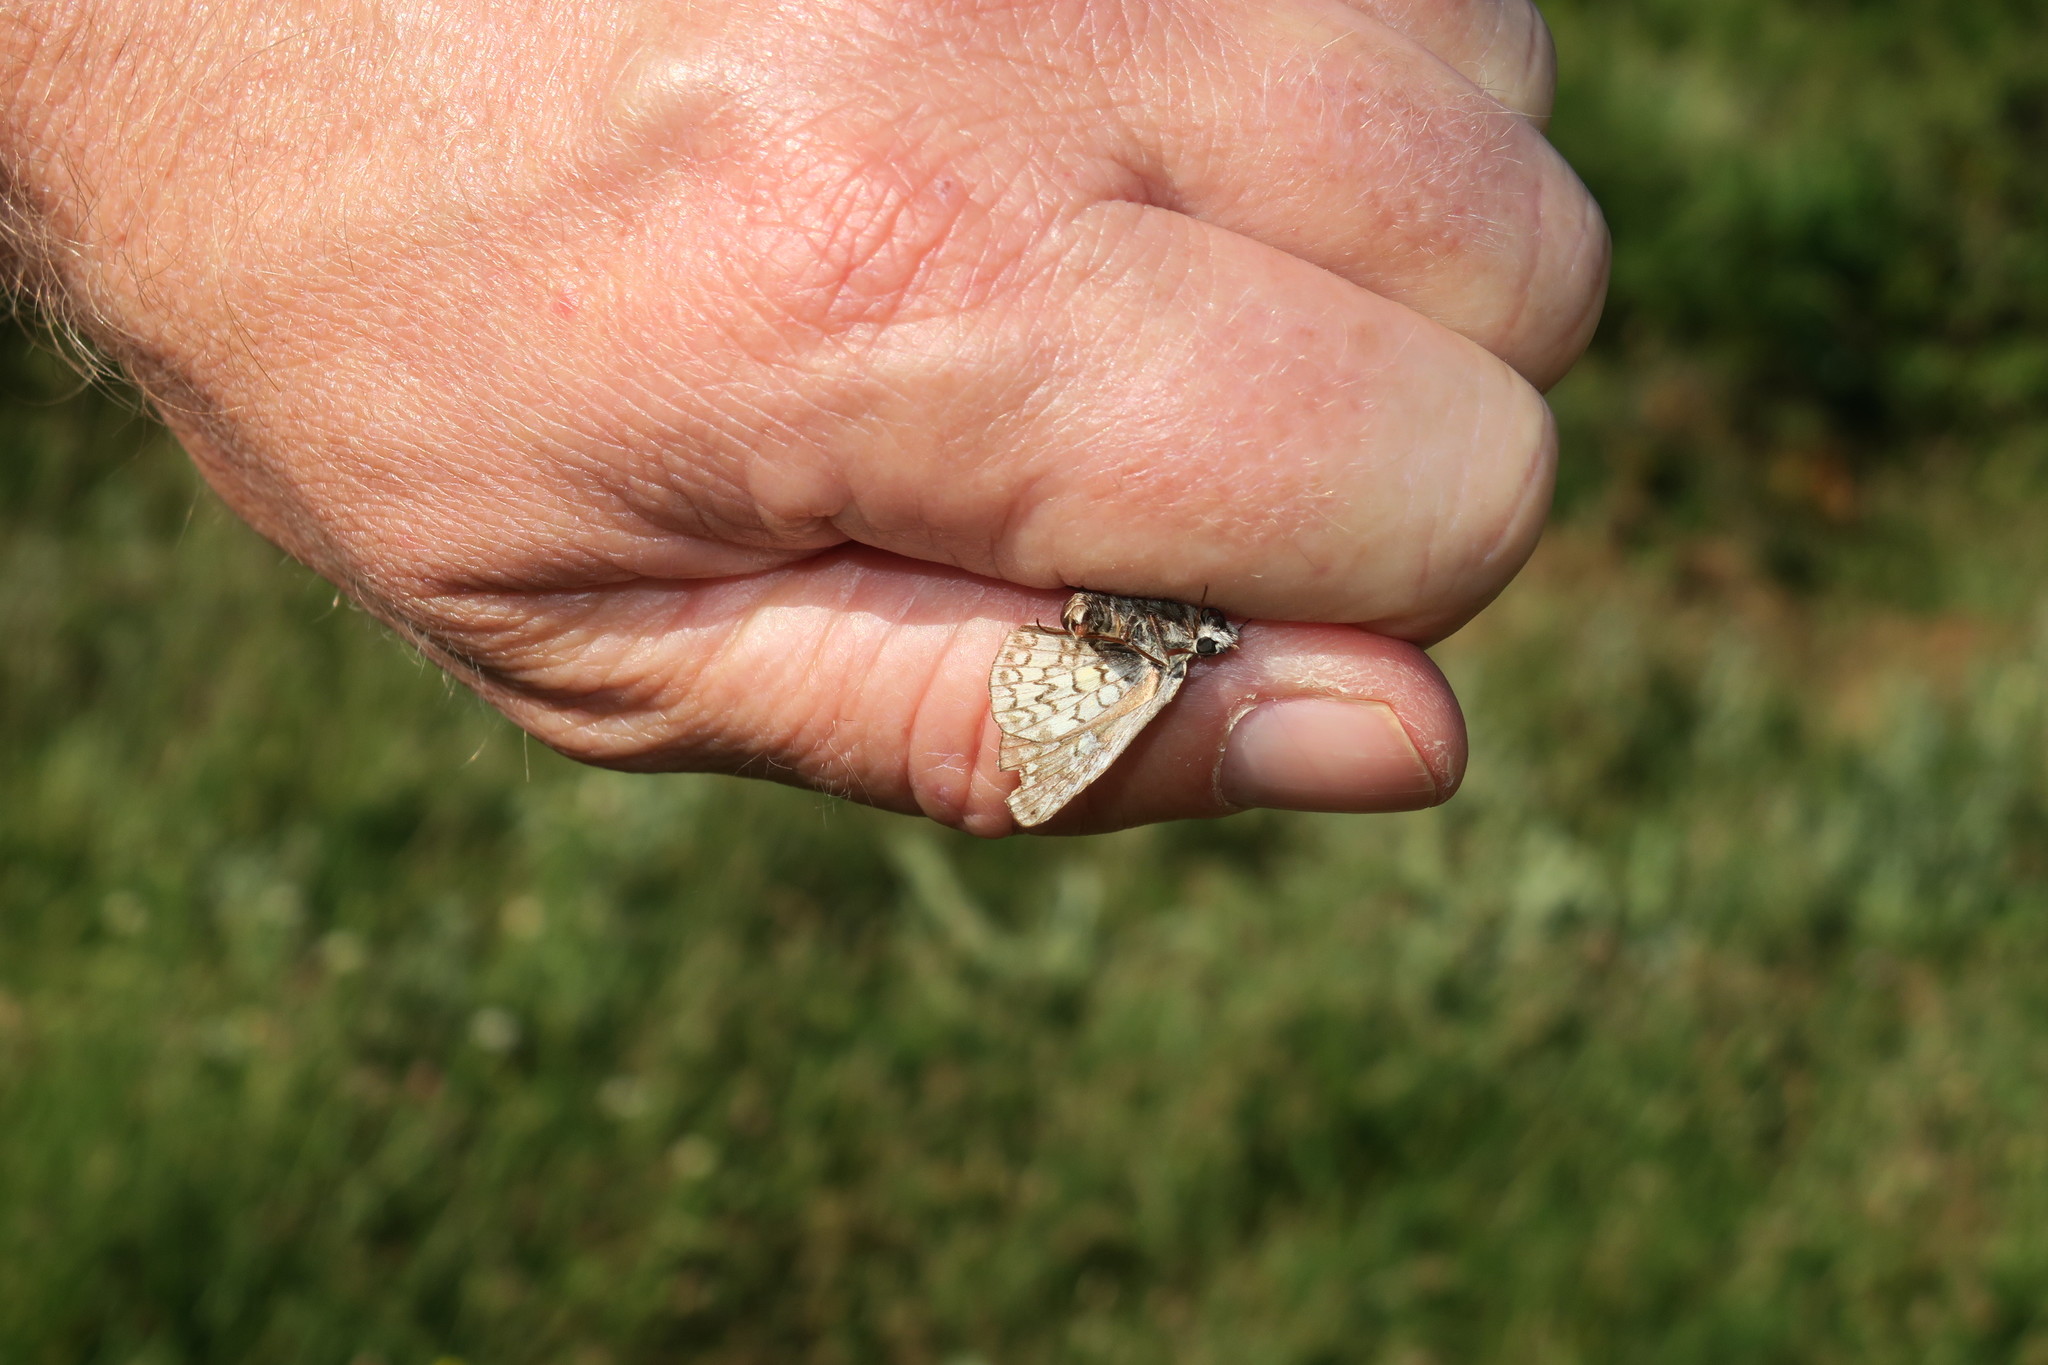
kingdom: Animalia
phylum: Arthropoda
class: Insecta
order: Lepidoptera
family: Hesperiidae
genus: Pyrgus
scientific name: Pyrgus sidae
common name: Yellow-banded skipper
